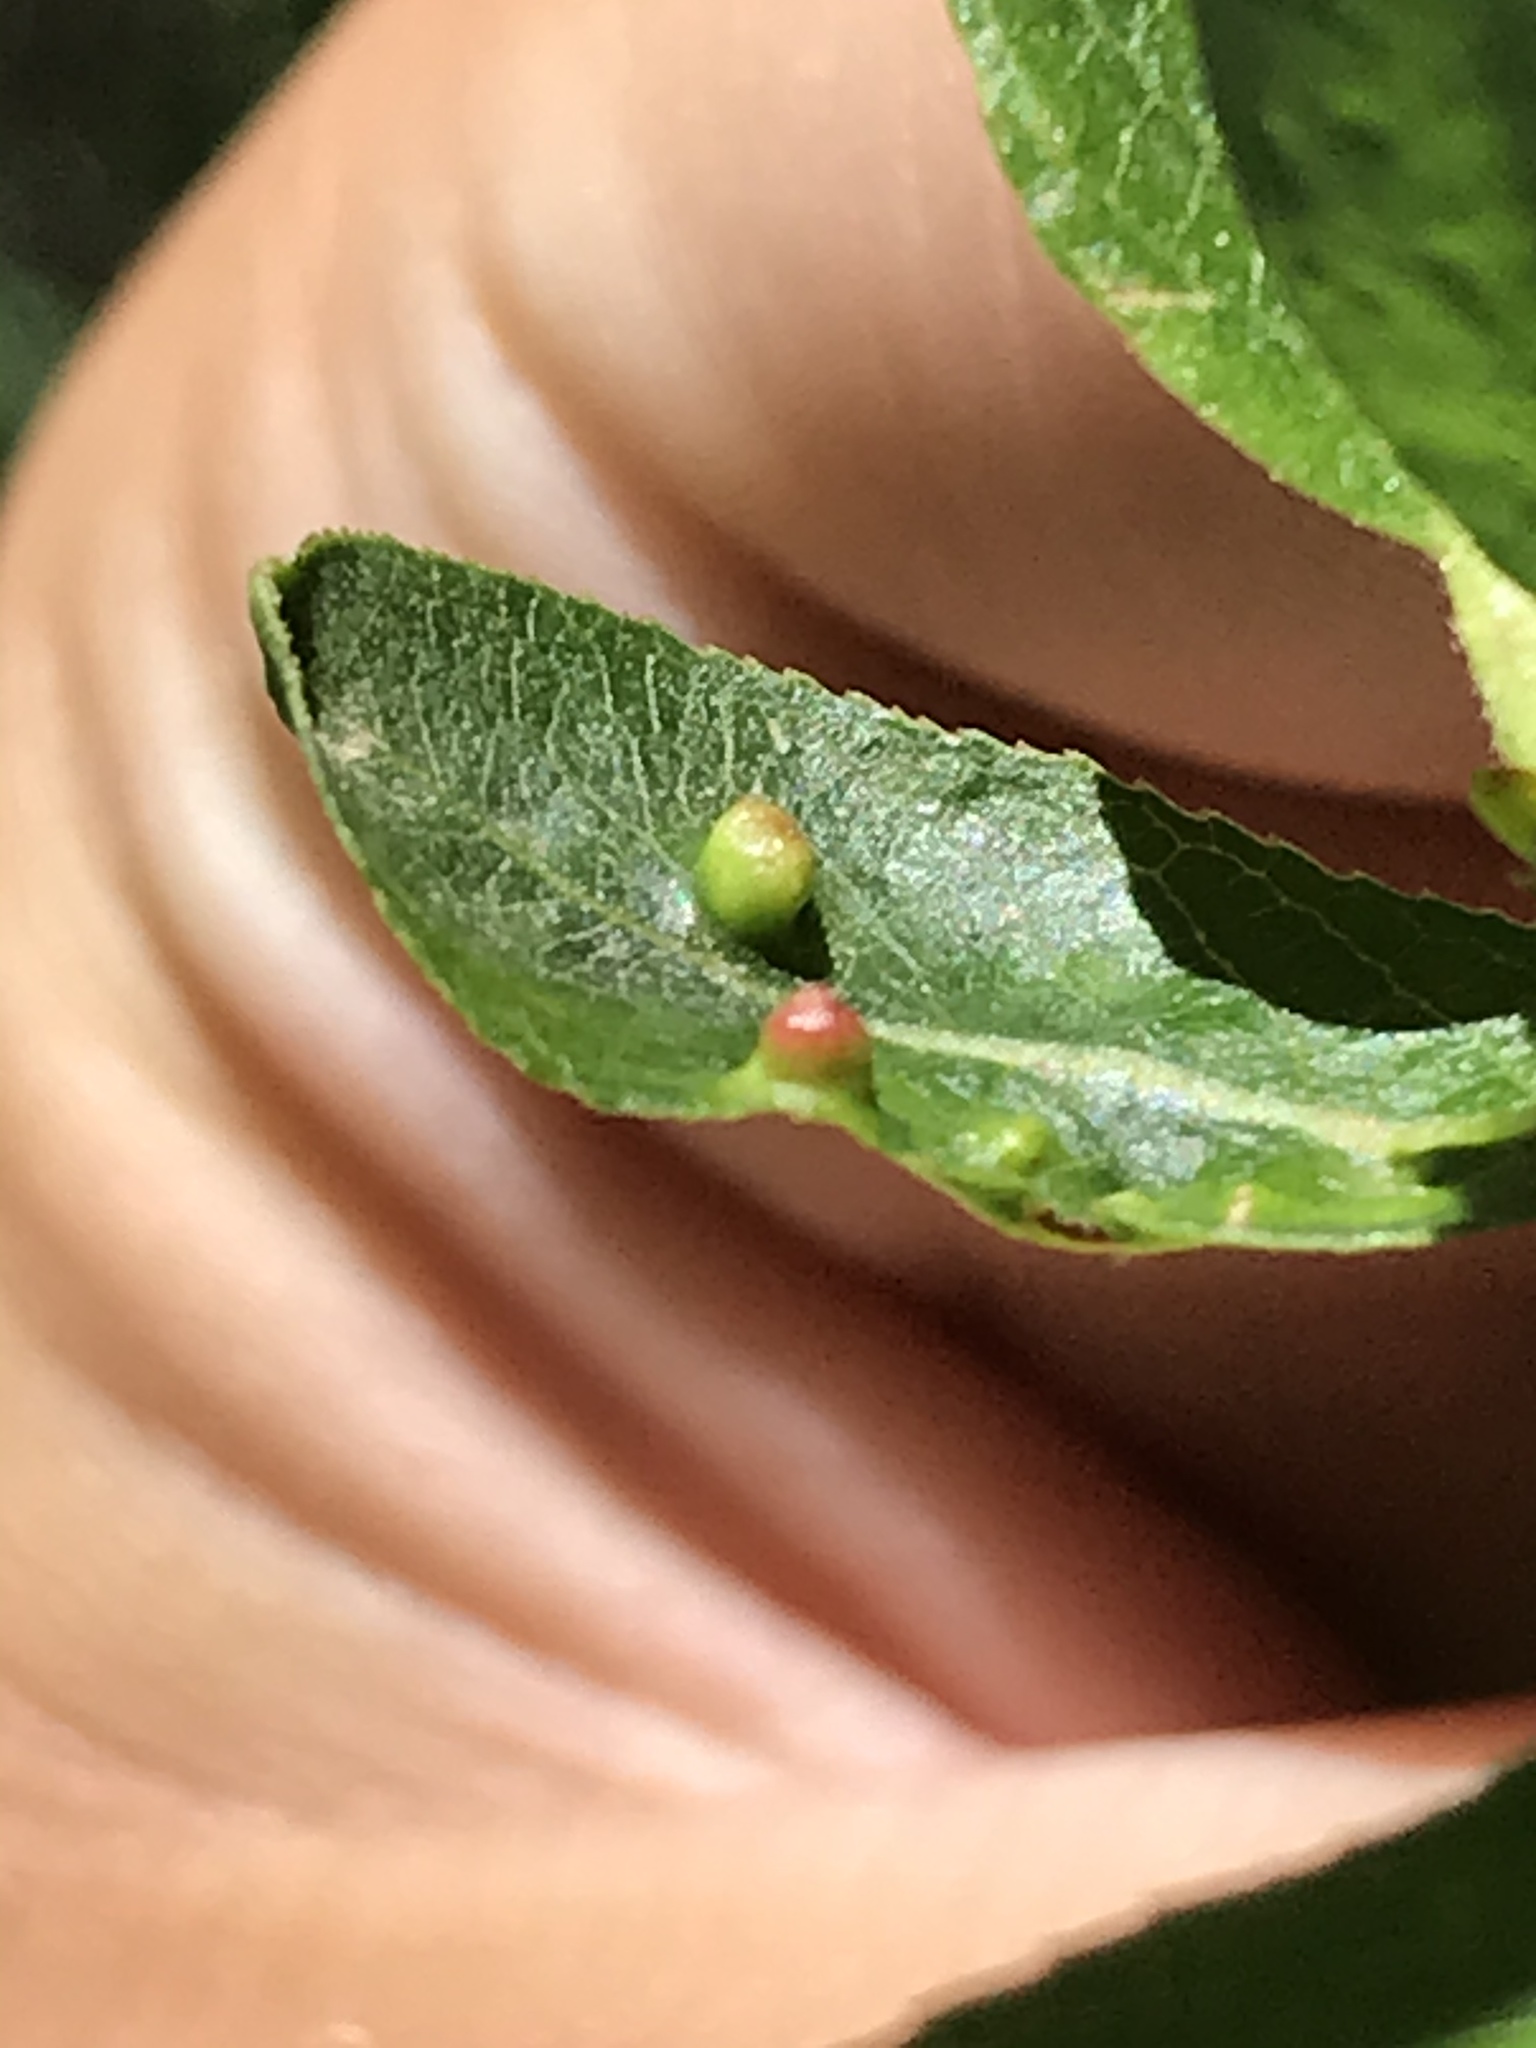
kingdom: Animalia
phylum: Arthropoda
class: Arachnida
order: Trombidiformes
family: Eriophyidae
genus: Aculus
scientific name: Aculus tetanothrix
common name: Willow bead gall mite
